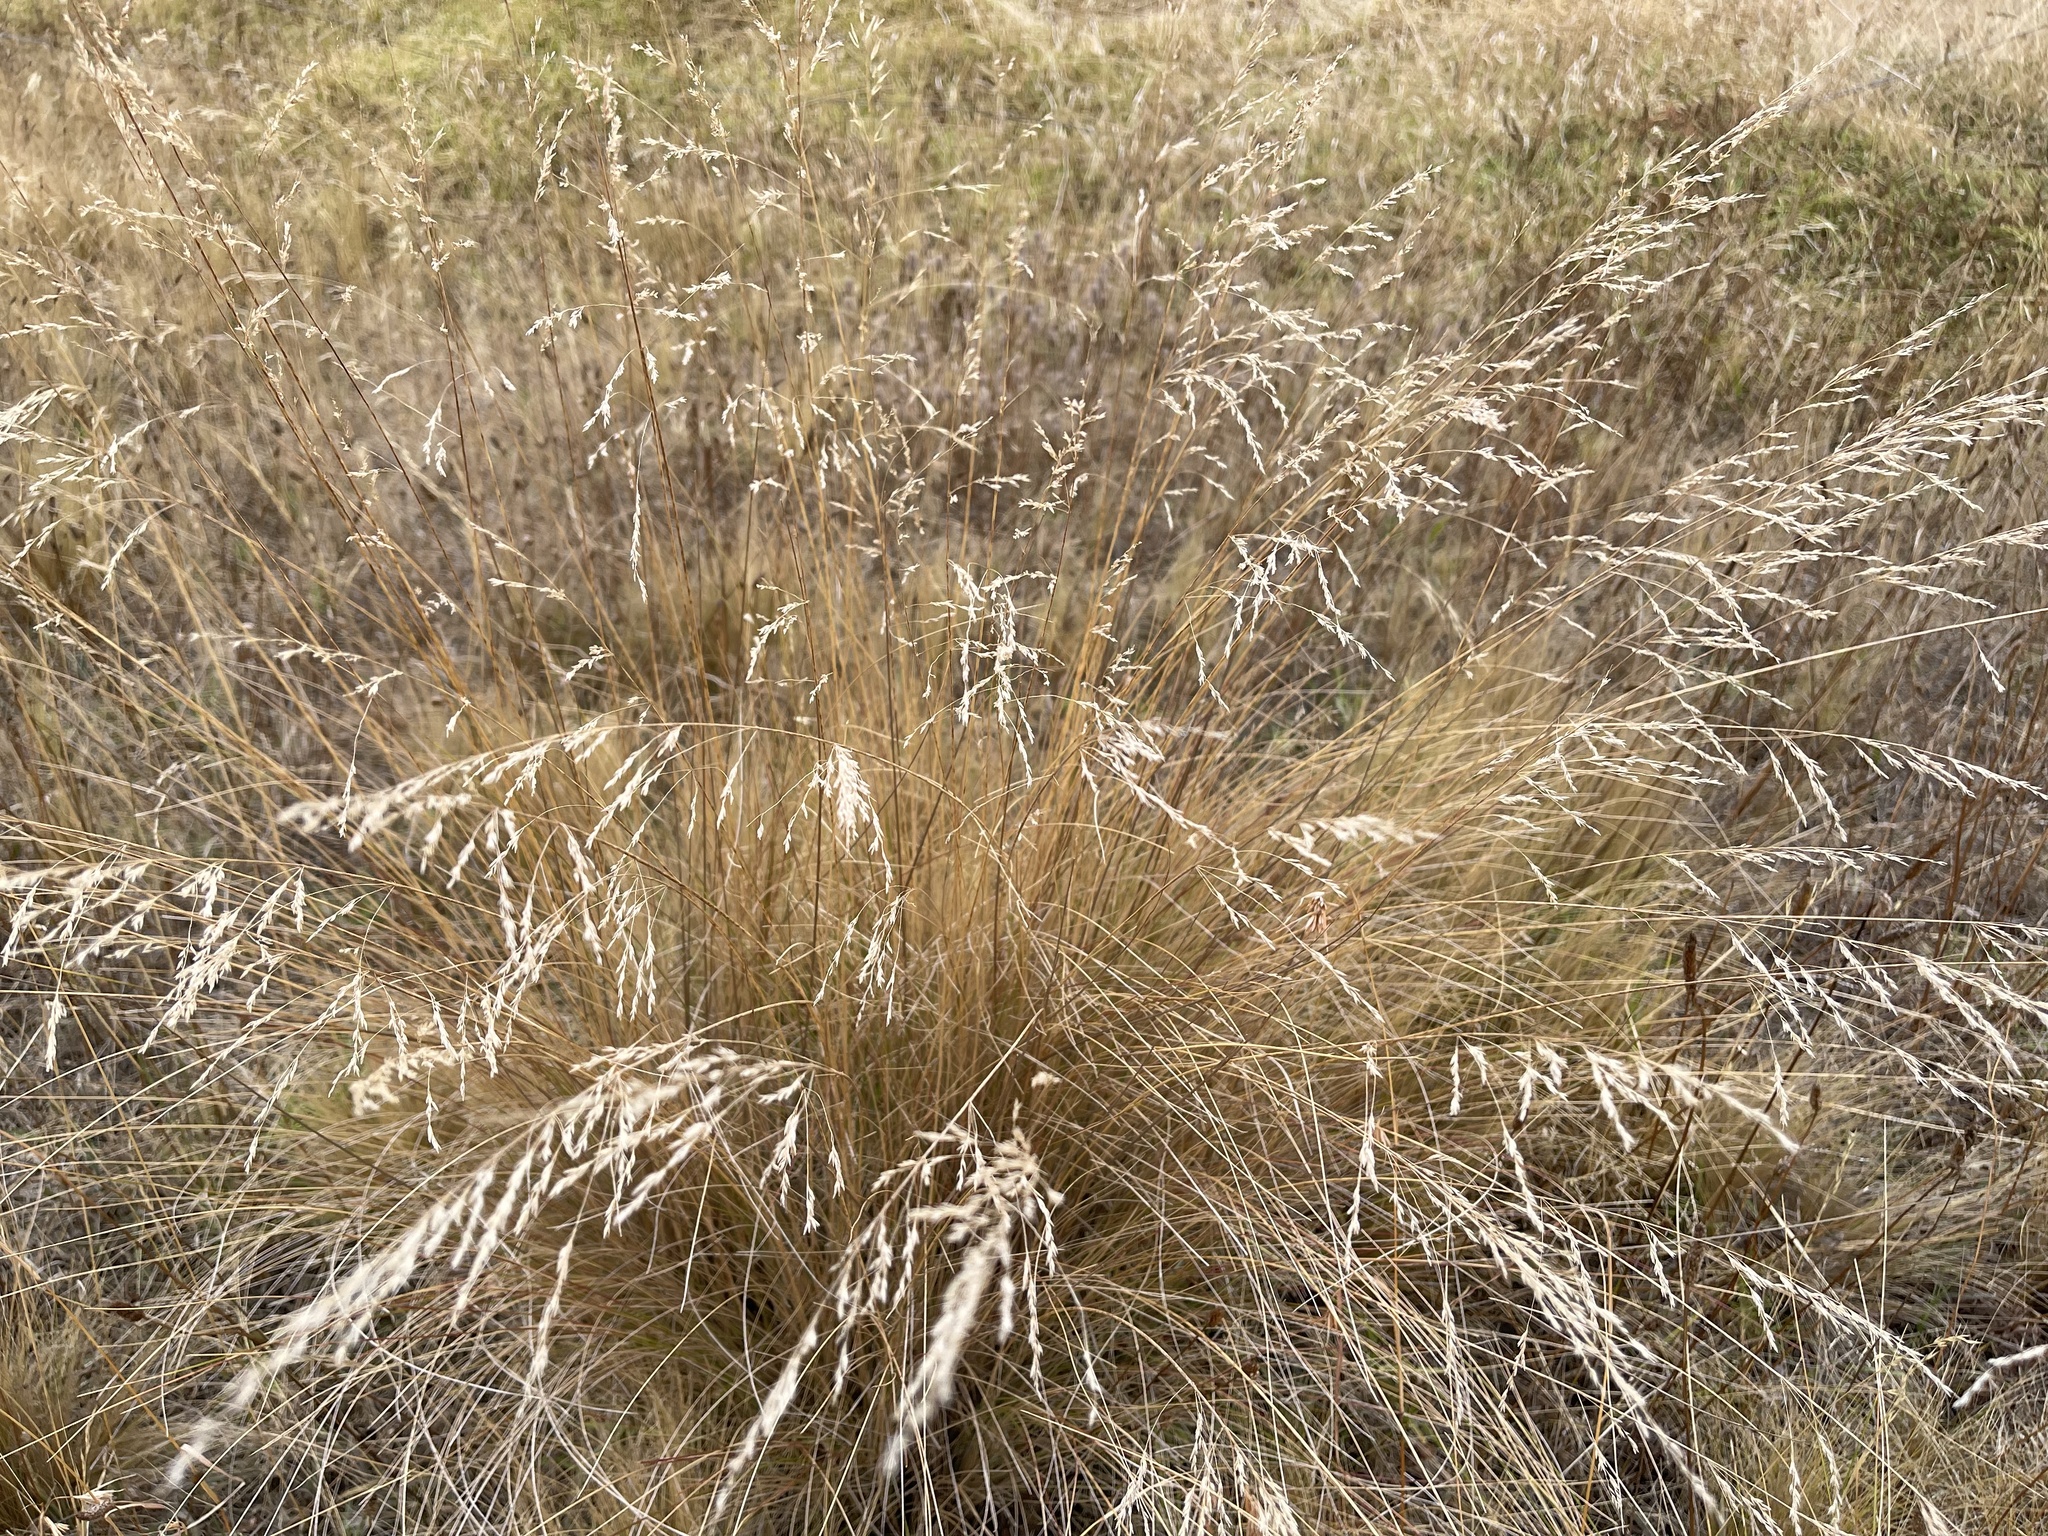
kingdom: Plantae
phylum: Tracheophyta
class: Liliopsida
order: Poales
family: Poaceae
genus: Poa
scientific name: Poa labillardierei
